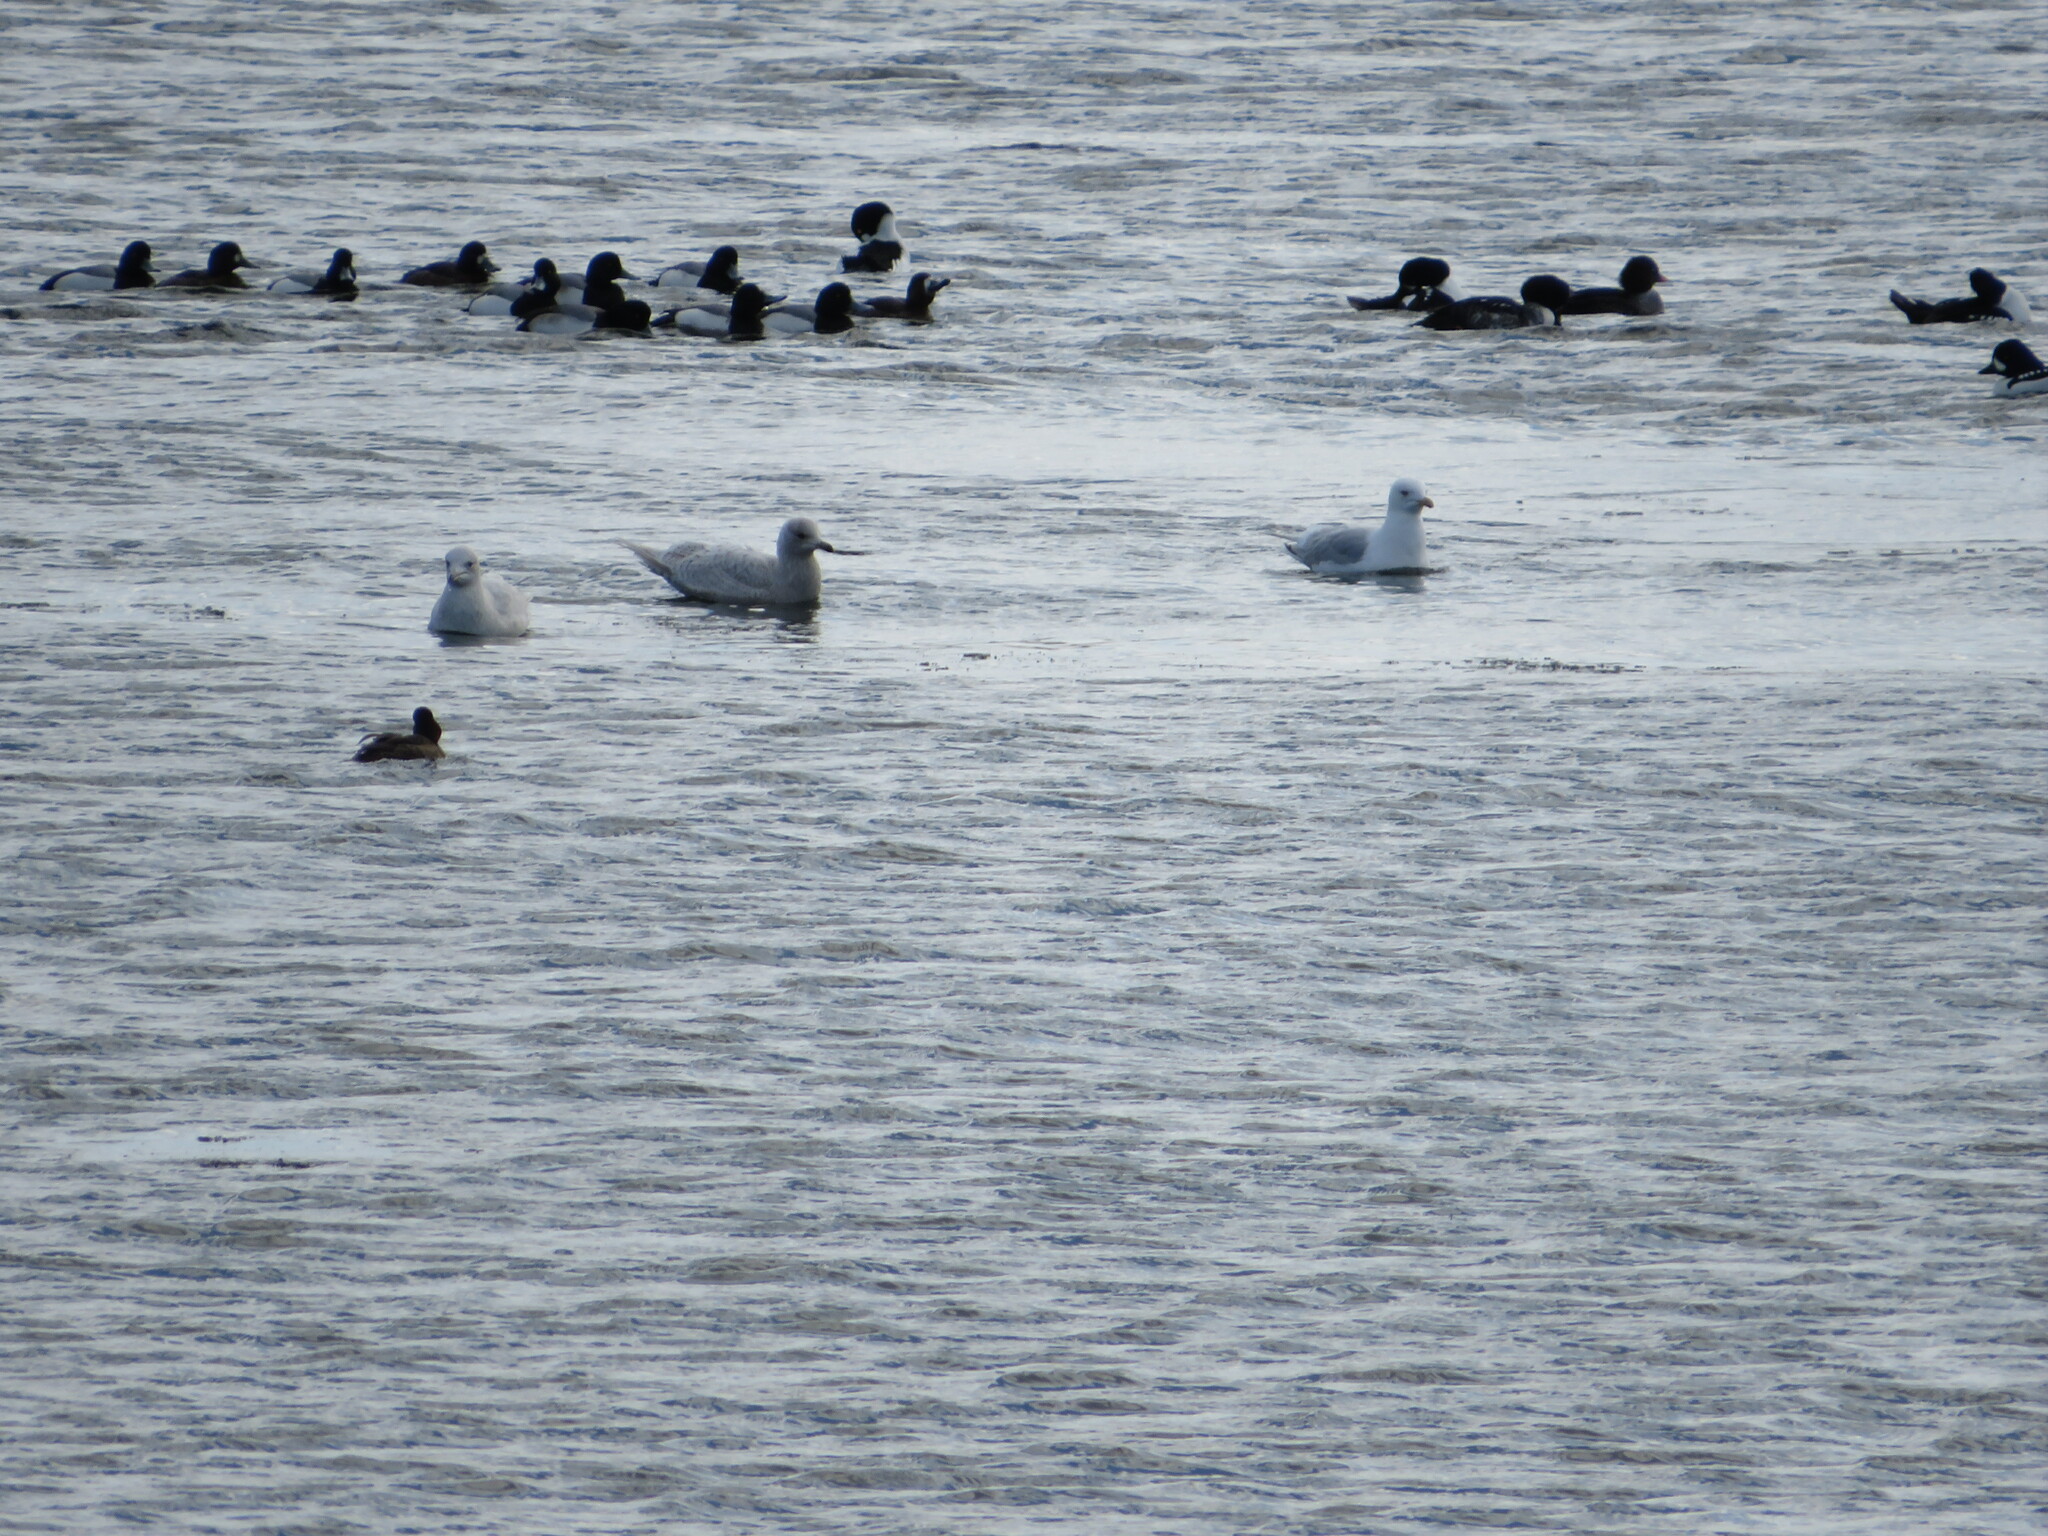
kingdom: Animalia
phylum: Chordata
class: Aves
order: Charadriiformes
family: Laridae
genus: Larus
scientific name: Larus glaucoides
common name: Iceland gull
